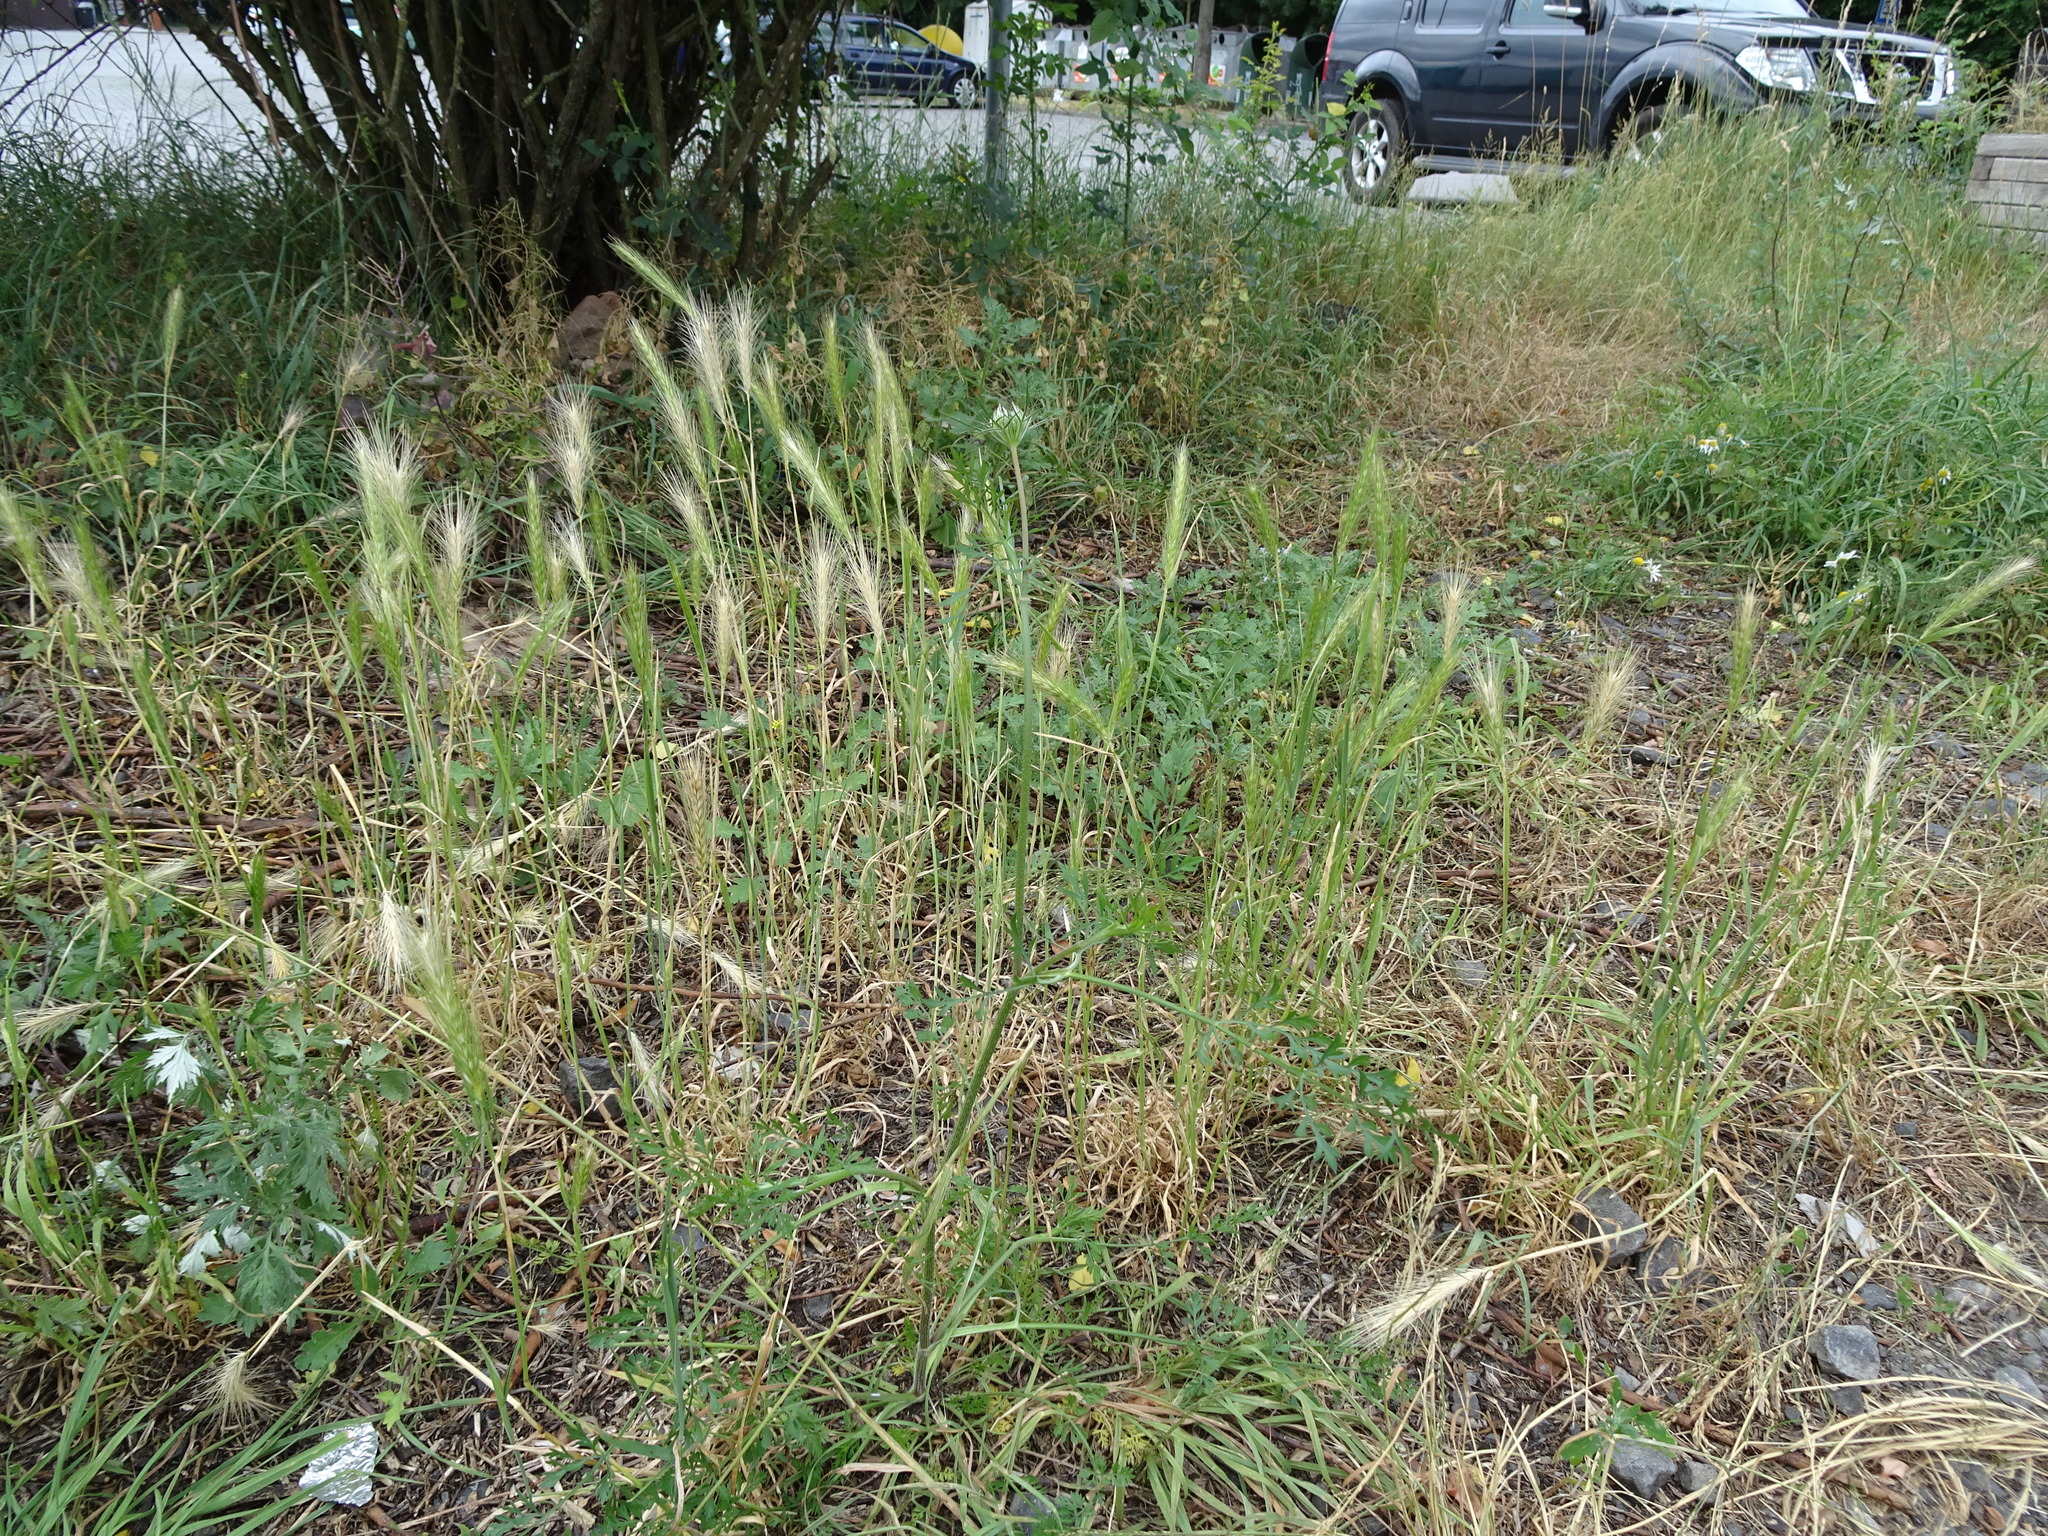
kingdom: Plantae
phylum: Tracheophyta
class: Liliopsida
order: Poales
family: Poaceae
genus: Hordeum
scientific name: Hordeum murinum
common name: Wall barley
